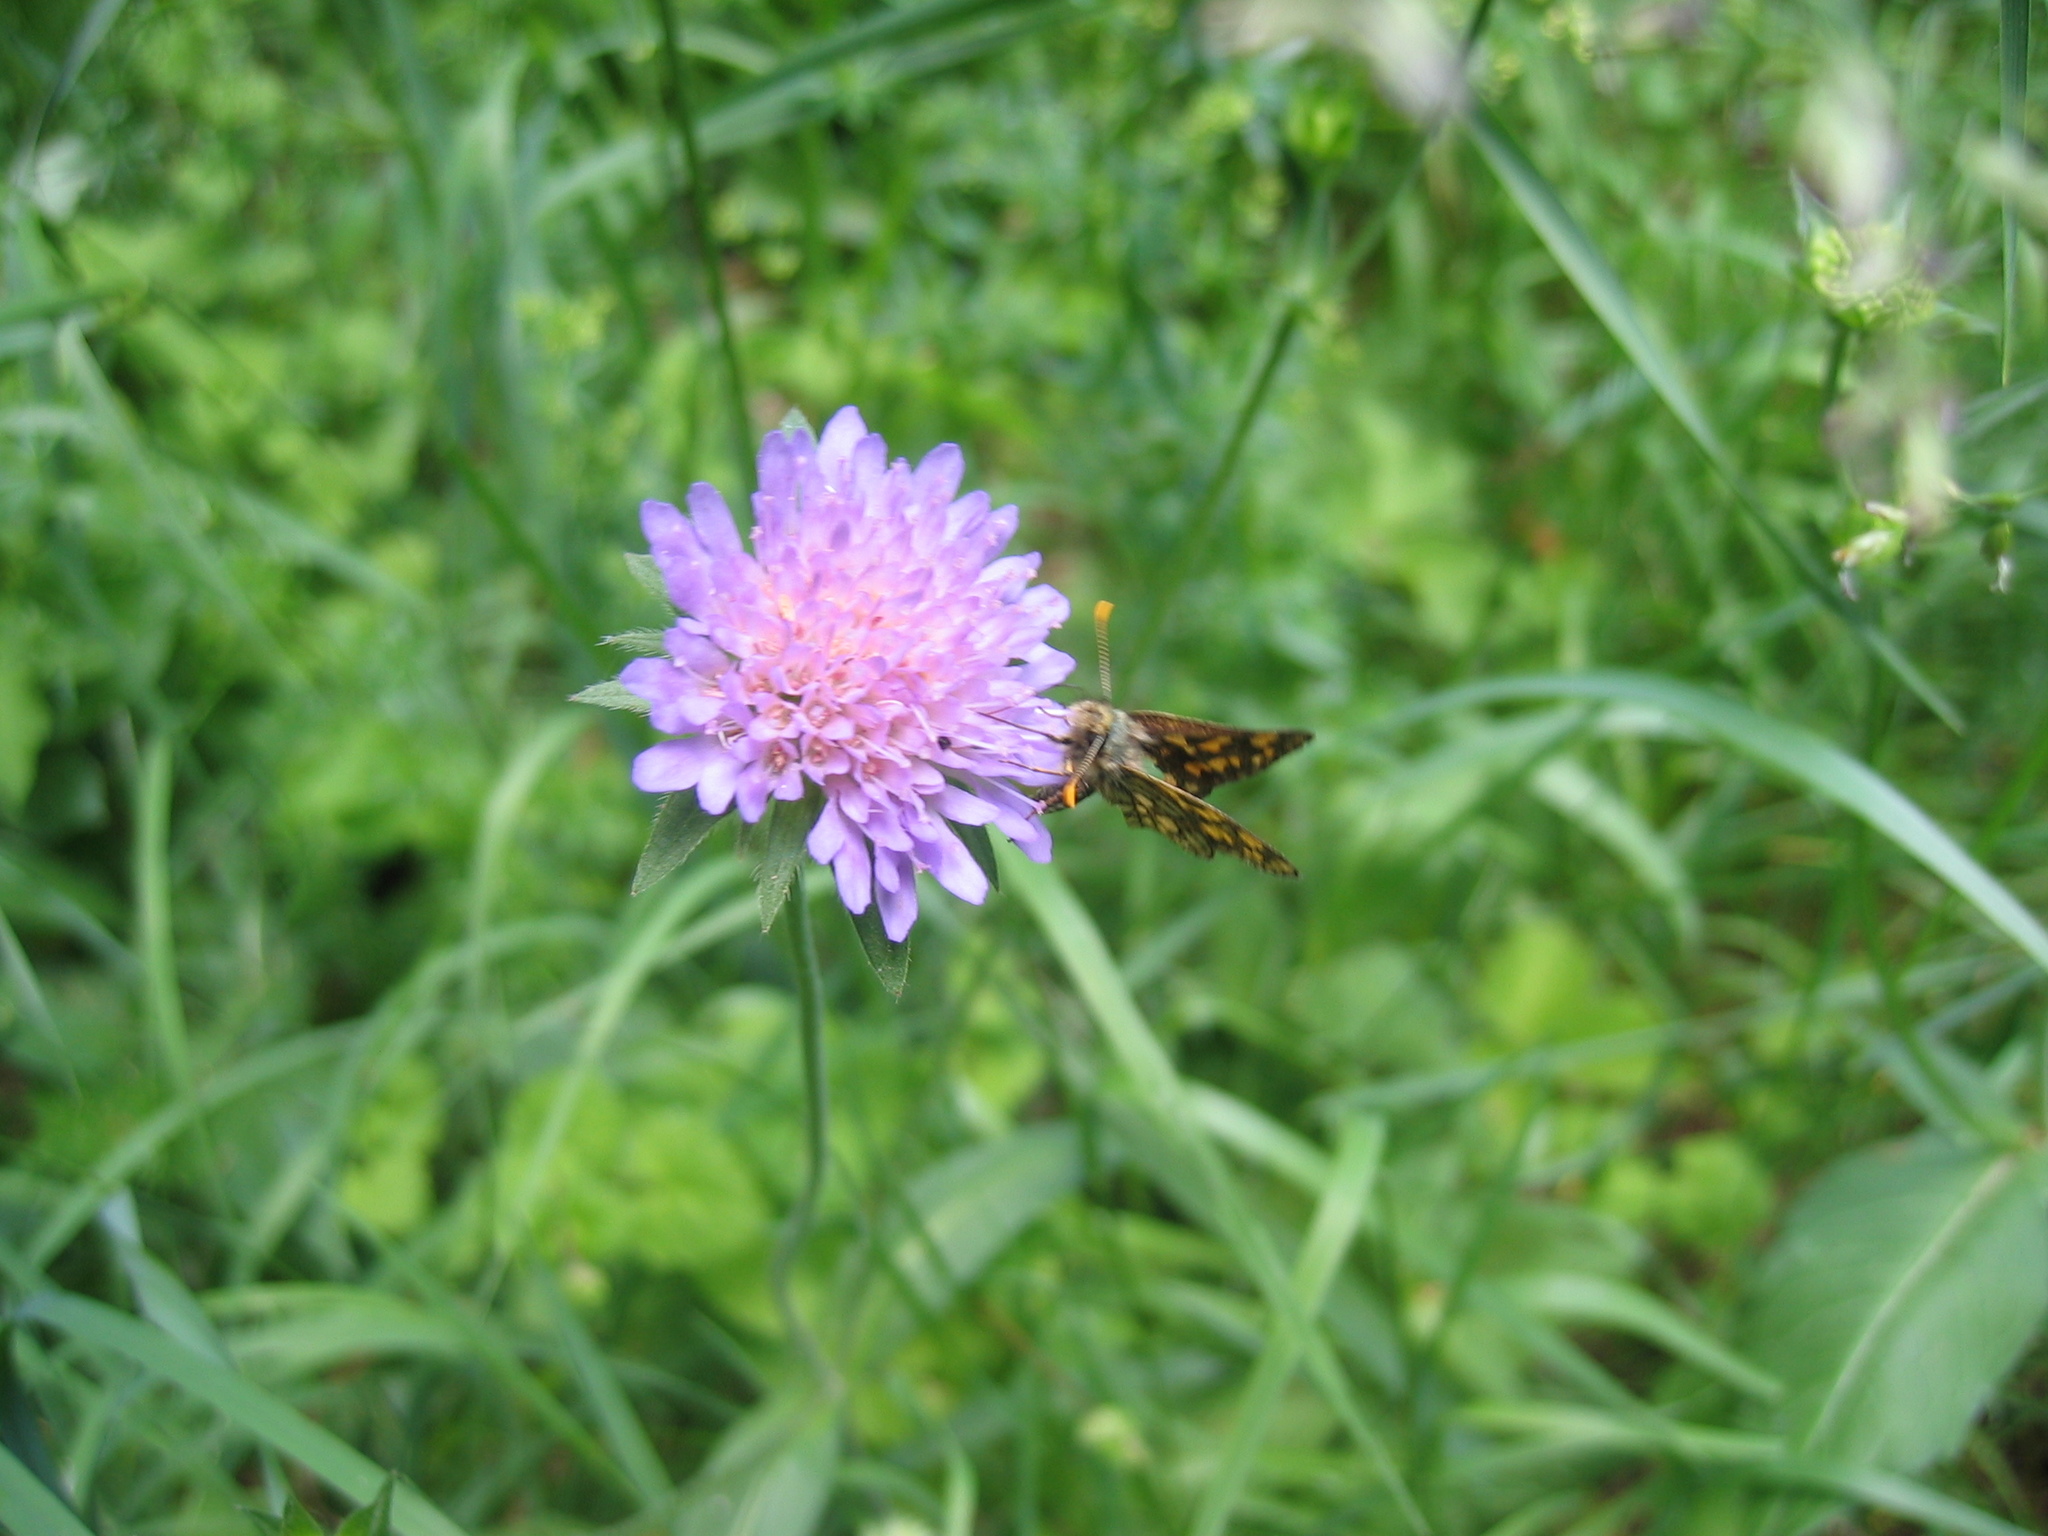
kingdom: Animalia
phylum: Arthropoda
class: Insecta
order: Lepidoptera
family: Hesperiidae
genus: Carterocephalus
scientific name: Carterocephalus palaemon
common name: Chequered skipper
